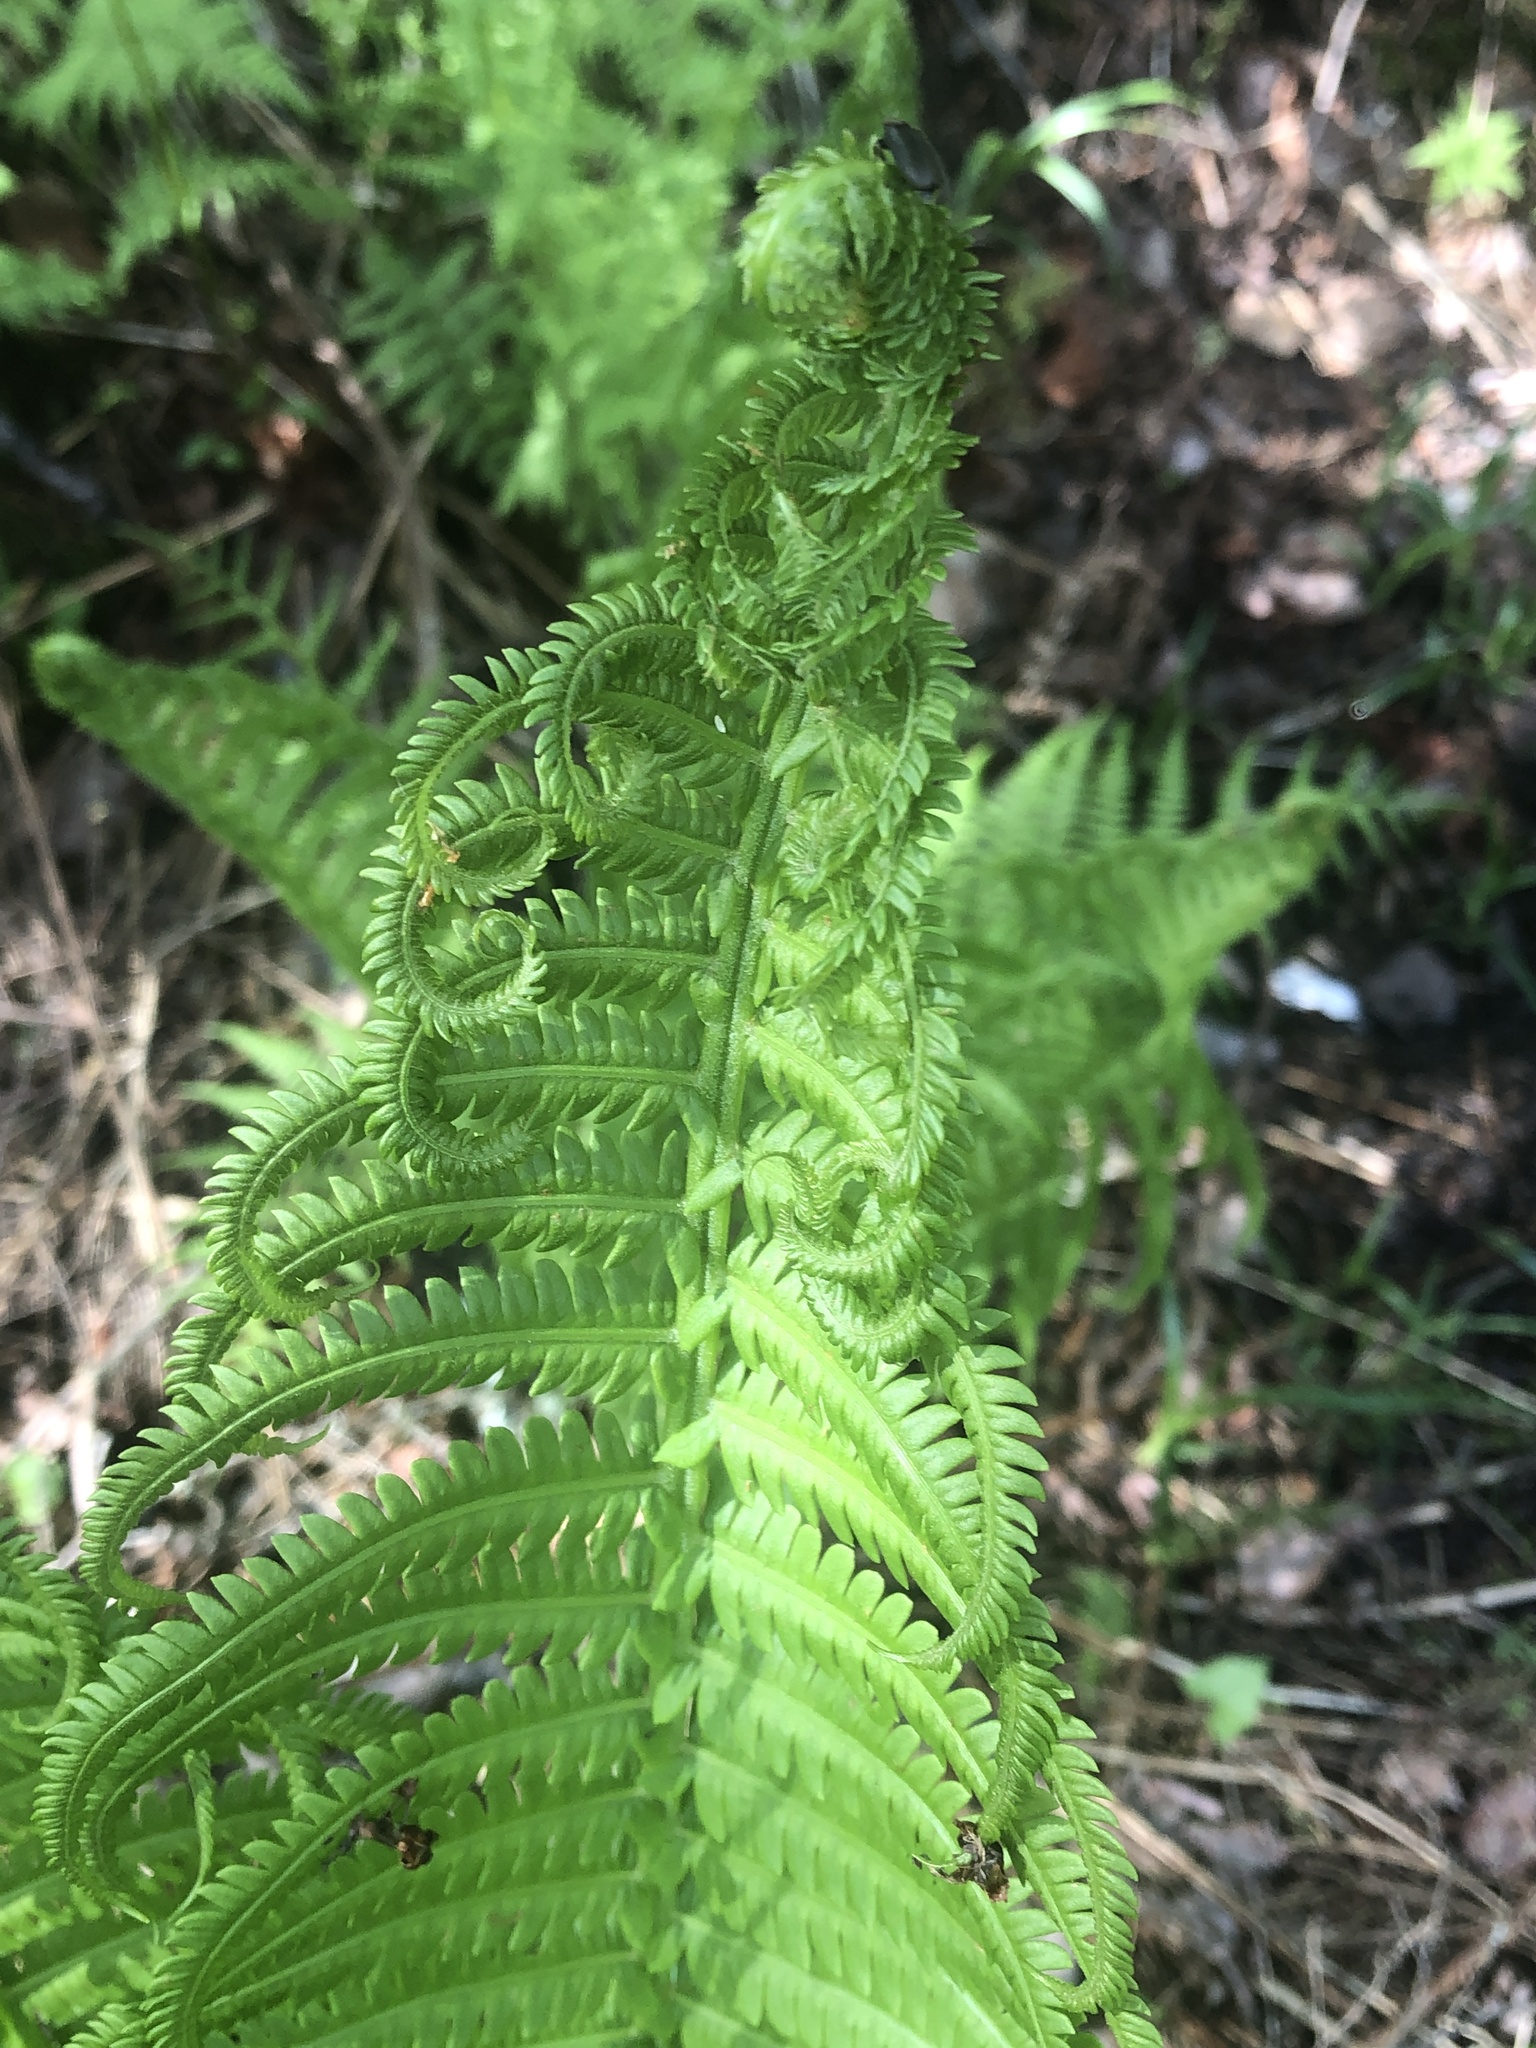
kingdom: Plantae
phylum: Tracheophyta
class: Polypodiopsida
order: Polypodiales
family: Onocleaceae
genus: Matteuccia
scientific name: Matteuccia struthiopteris
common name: Ostrich fern
